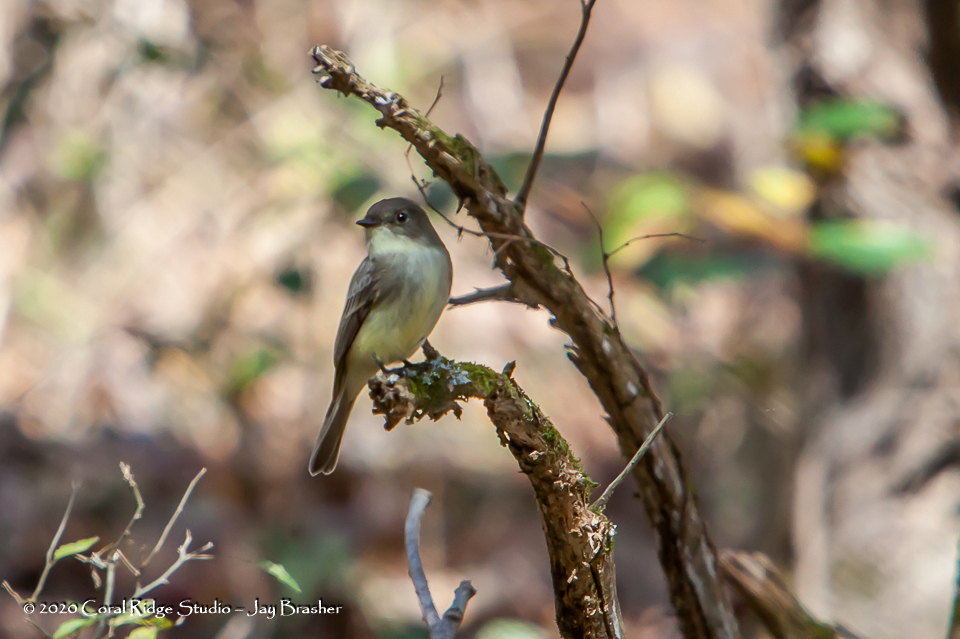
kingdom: Animalia
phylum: Chordata
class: Aves
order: Passeriformes
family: Tyrannidae
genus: Sayornis
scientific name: Sayornis phoebe
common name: Eastern phoebe
